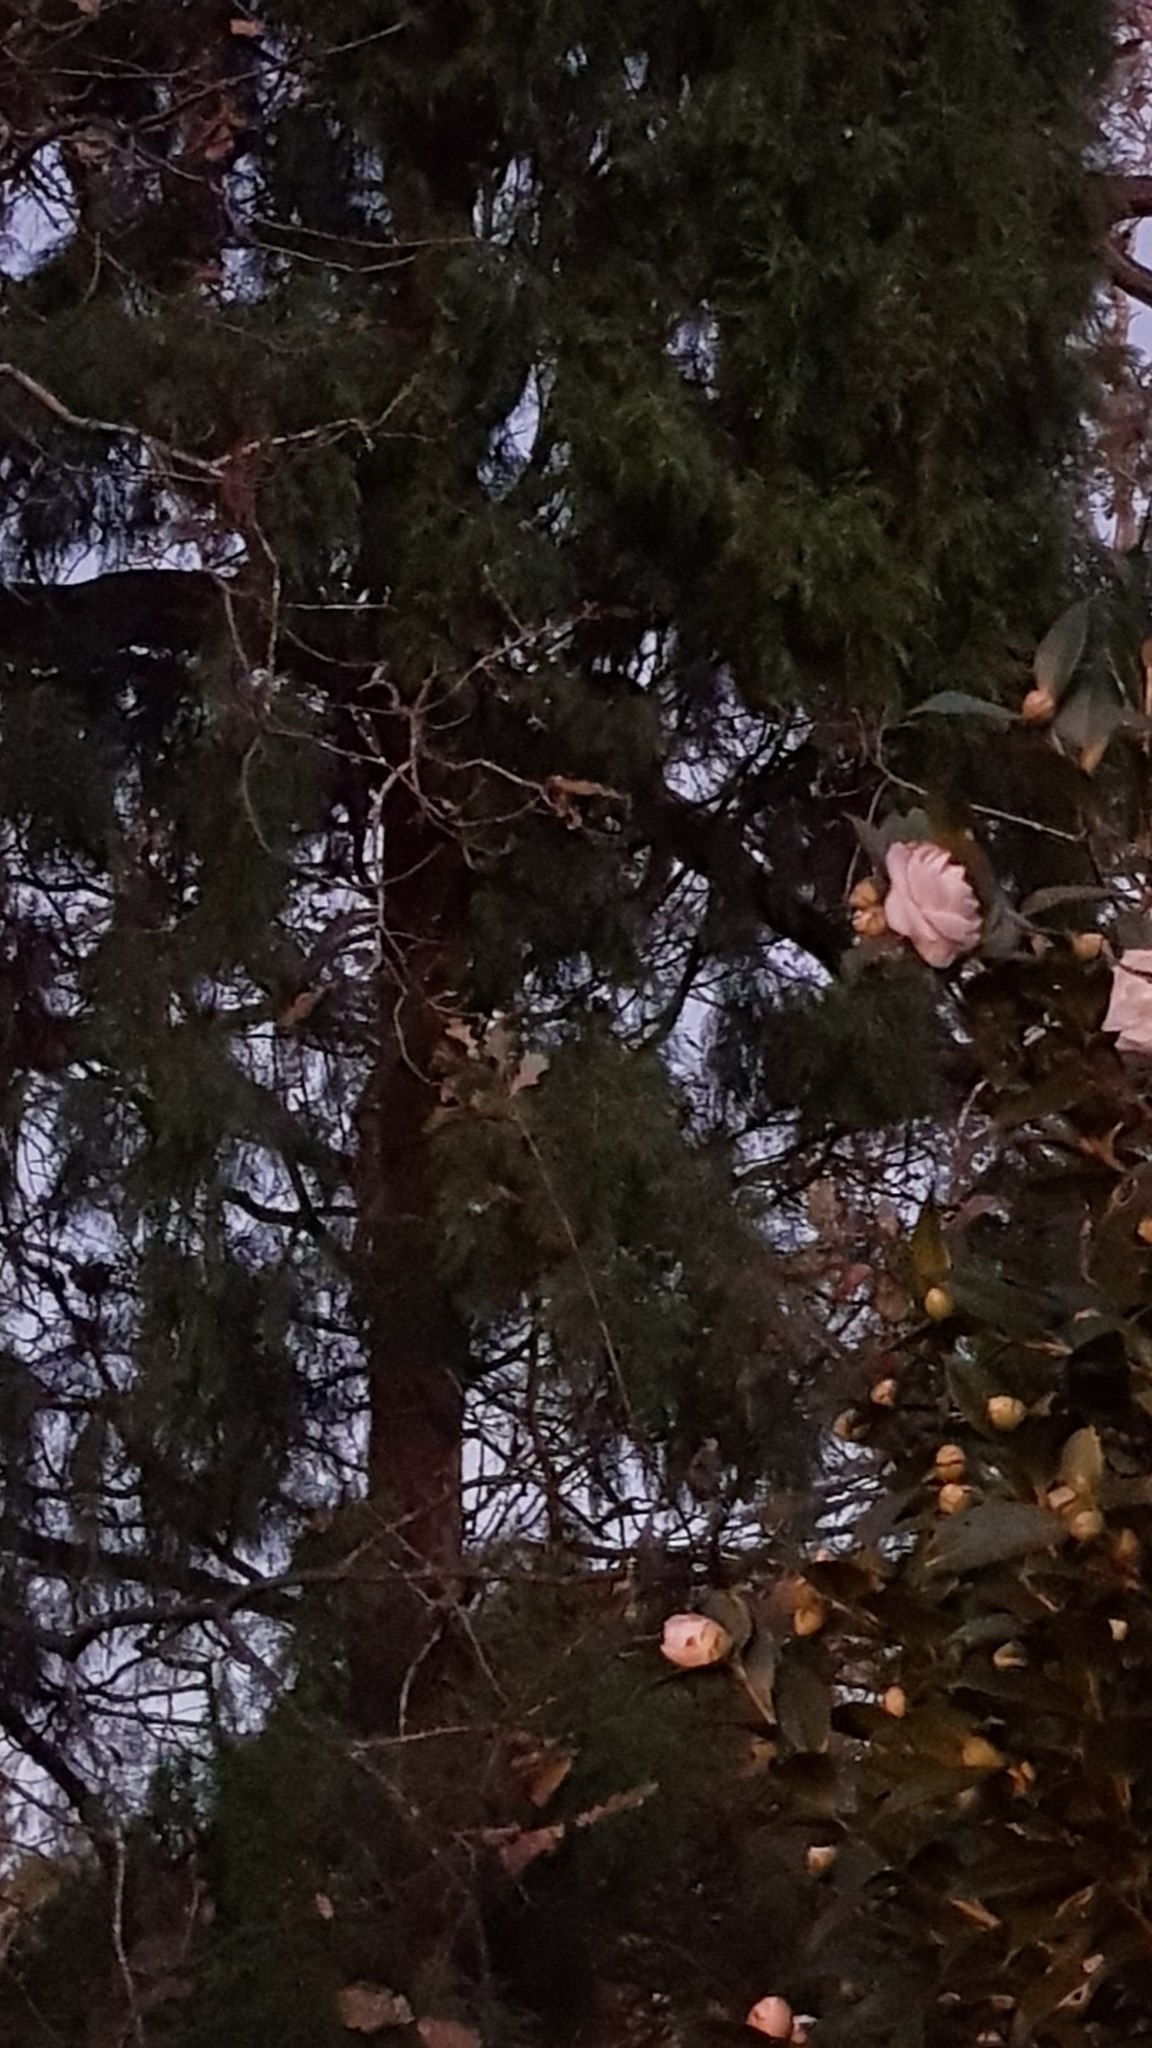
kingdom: Animalia
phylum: Chordata
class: Mammalia
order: Diprotodontia
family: Phalangeridae
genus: Trichosurus
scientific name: Trichosurus vulpecula
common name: Common brushtail
